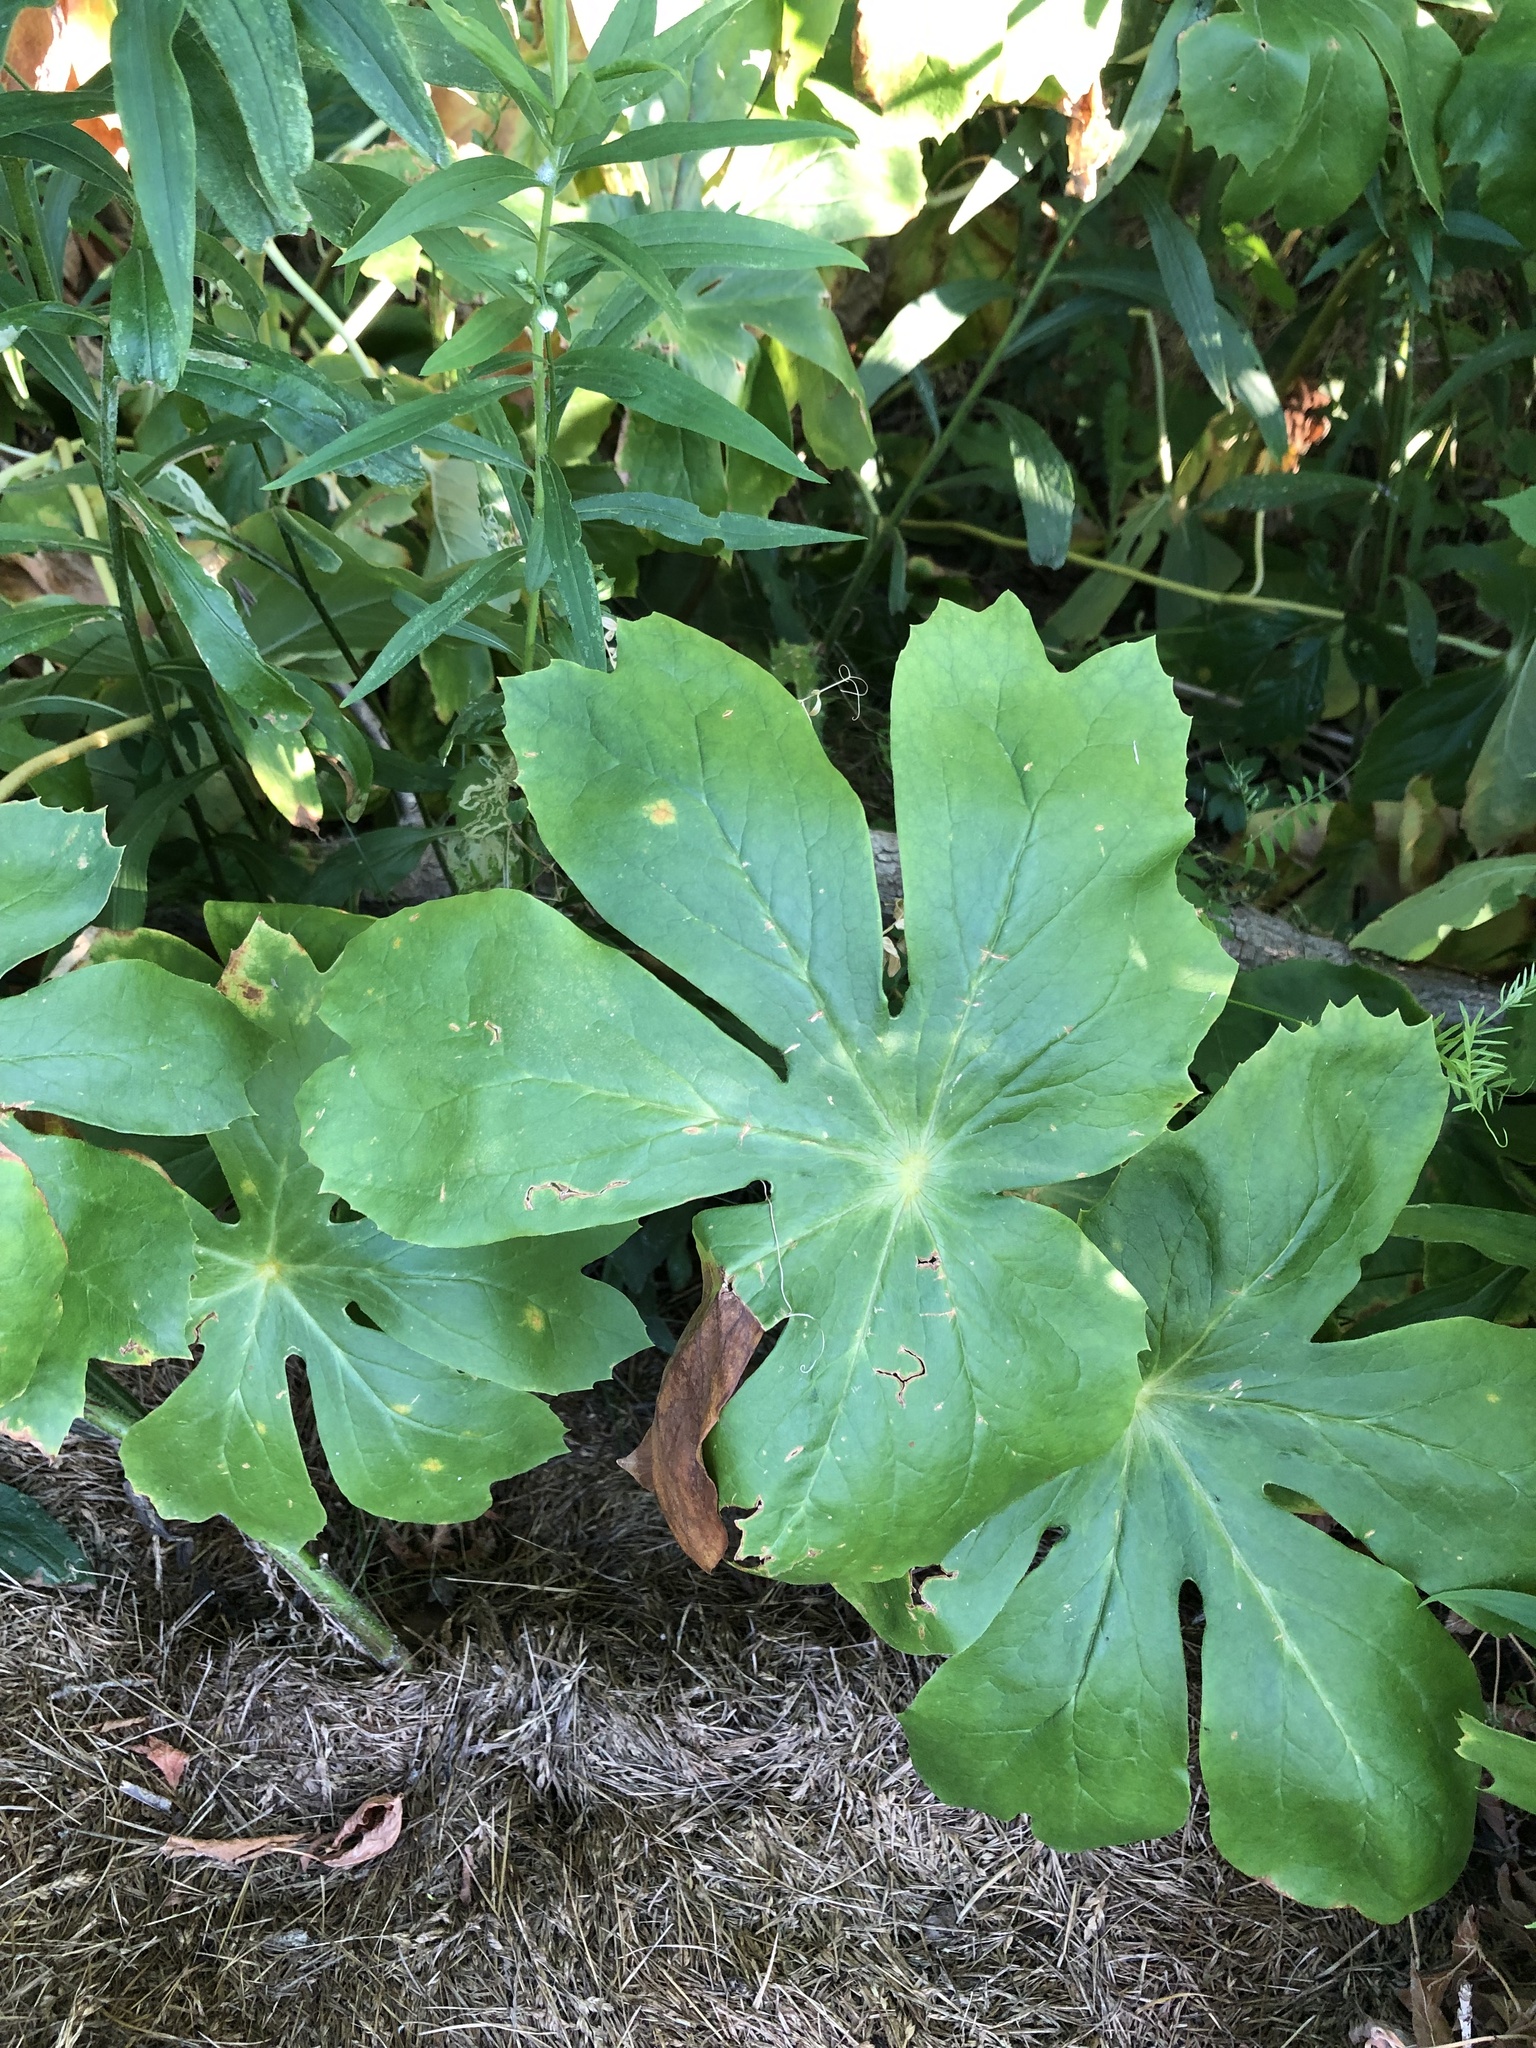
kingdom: Plantae
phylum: Tracheophyta
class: Magnoliopsida
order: Ranunculales
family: Berberidaceae
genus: Podophyllum
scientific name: Podophyllum peltatum
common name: Wild mandrake
